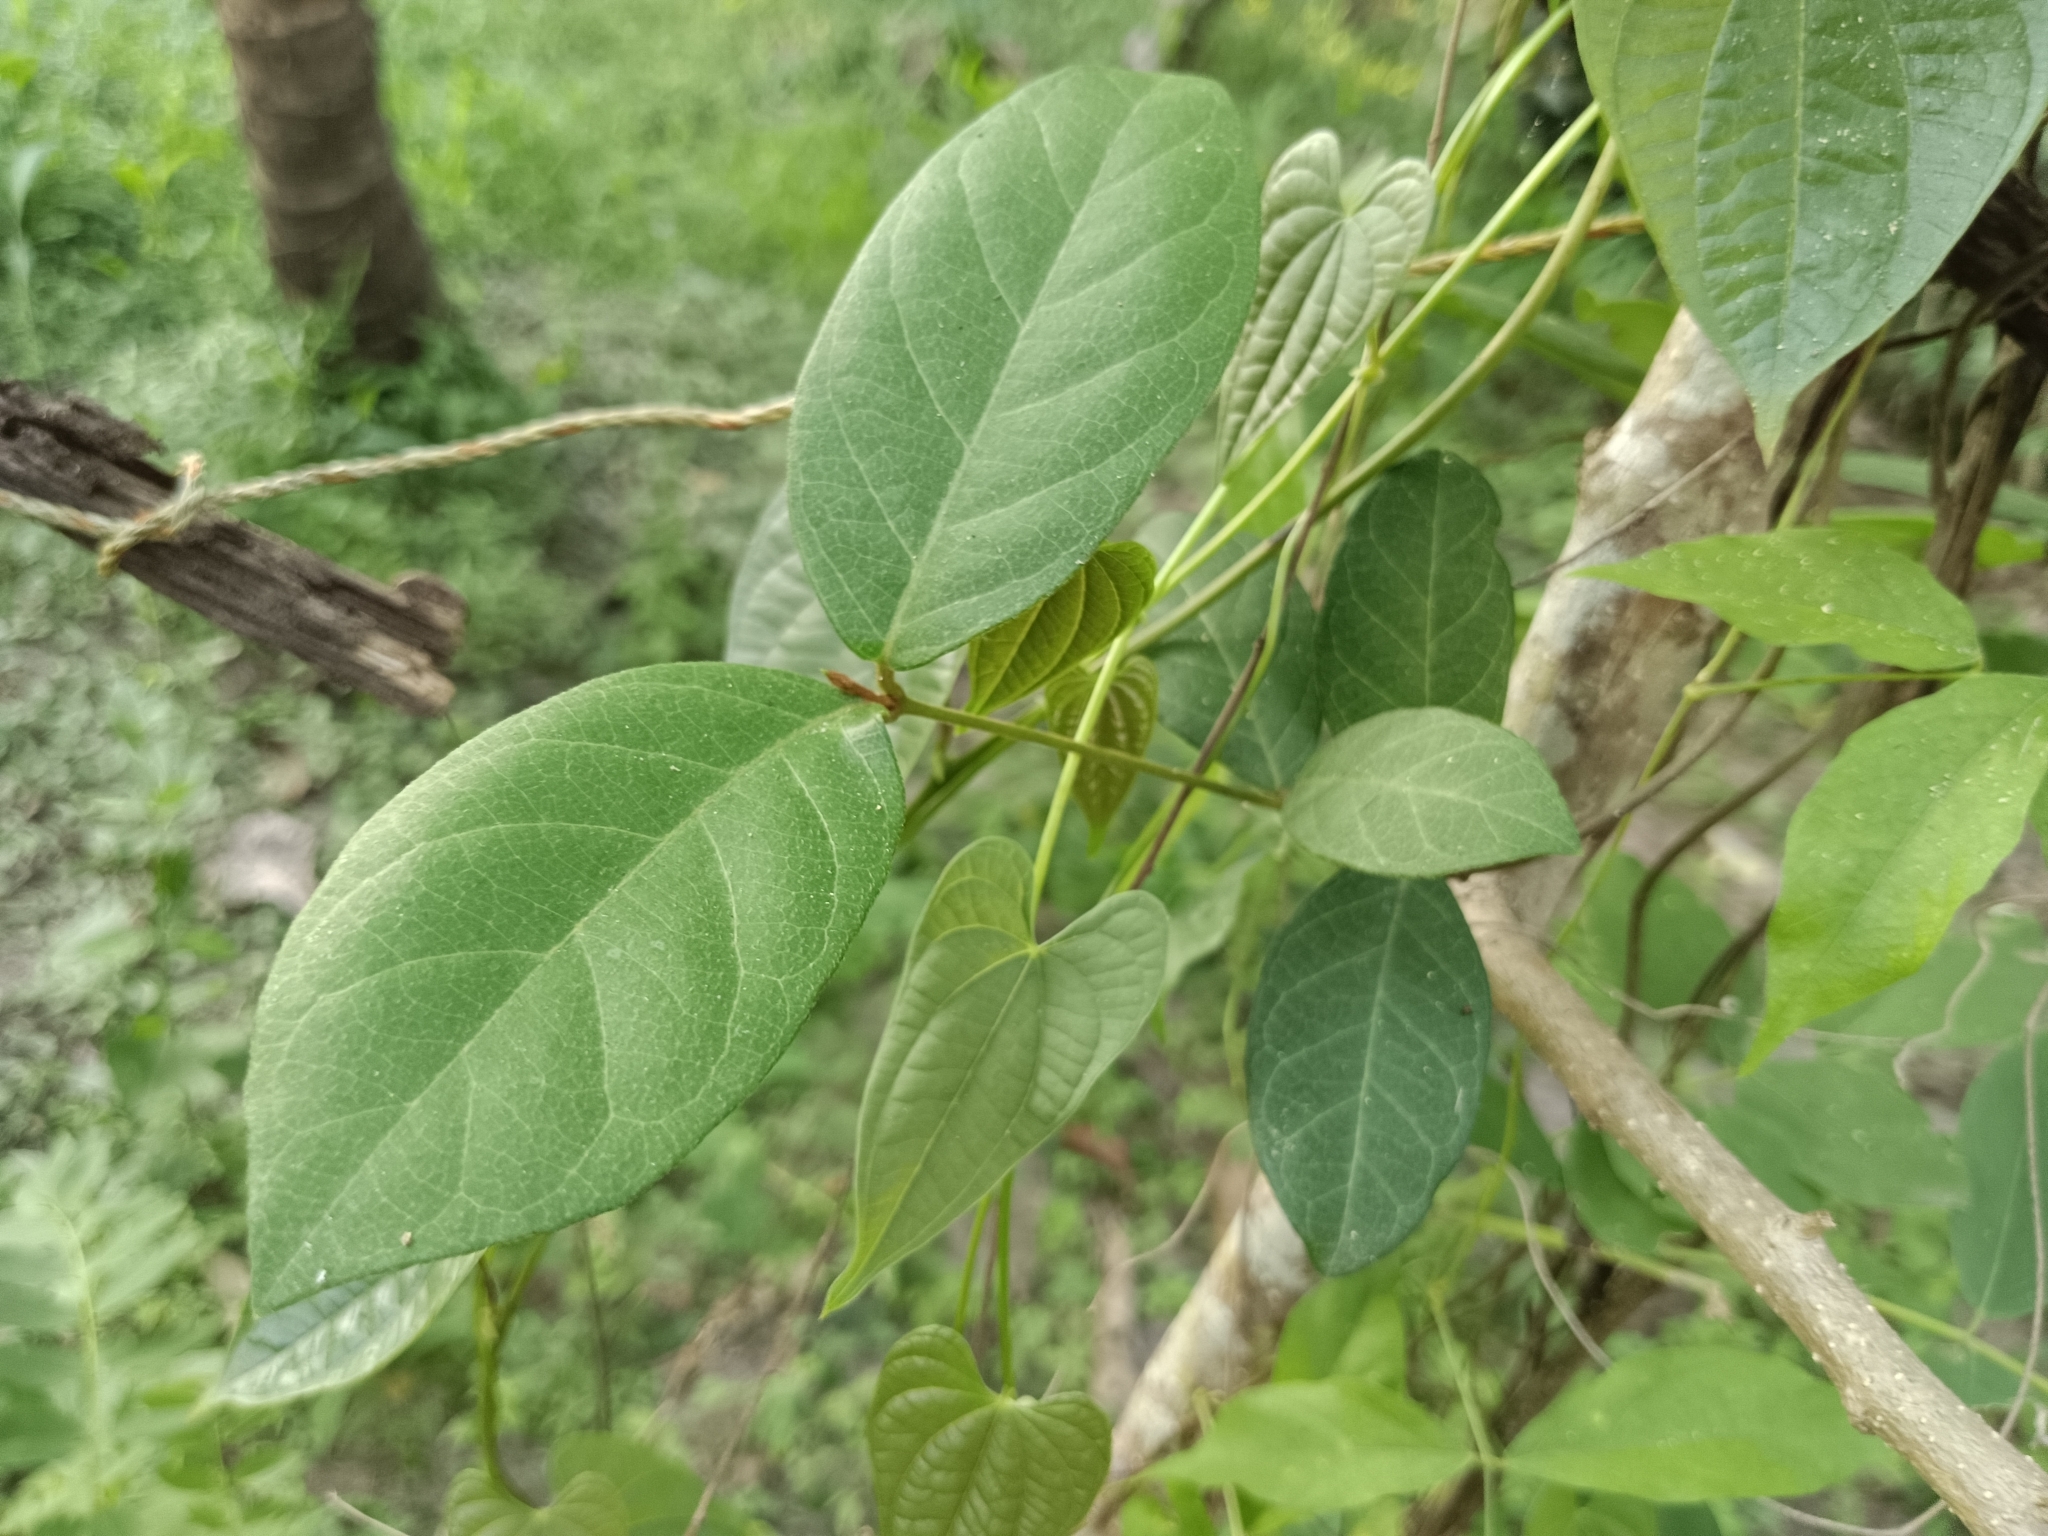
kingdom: Plantae
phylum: Tracheophyta
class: Magnoliopsida
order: Gentianales
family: Apocynaceae
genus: Ichnocarpus
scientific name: Ichnocarpus frutescens
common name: Ichnocarpus
